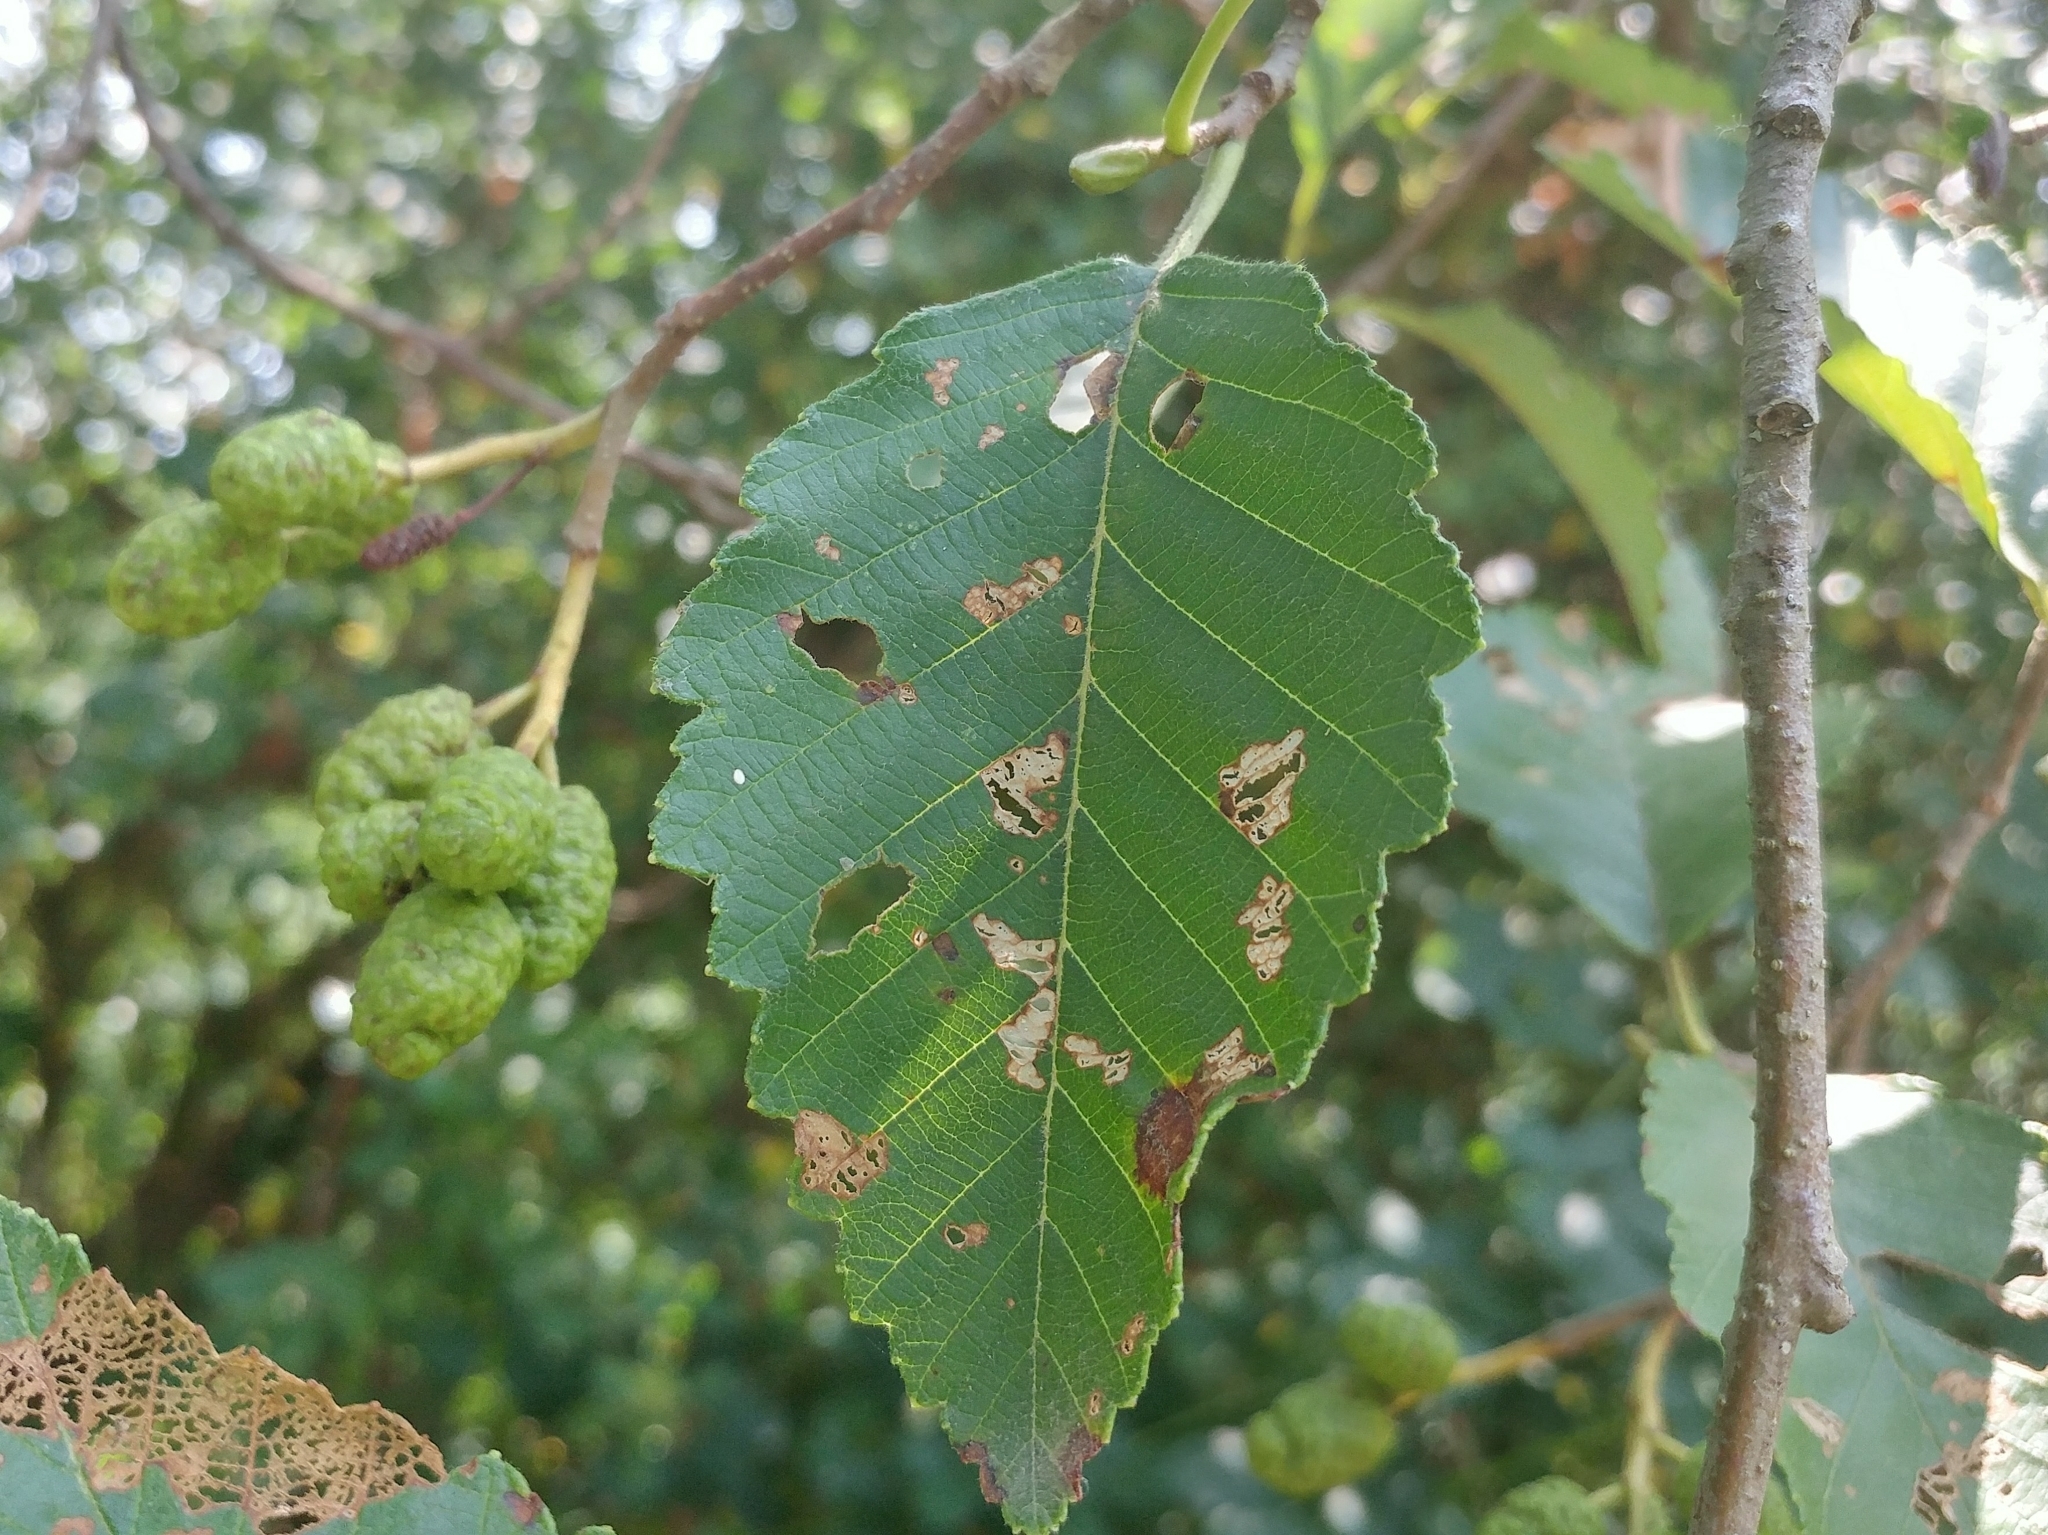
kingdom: Plantae
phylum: Tracheophyta
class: Magnoliopsida
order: Fagales
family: Betulaceae
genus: Alnus
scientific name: Alnus rubra
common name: Red alder
